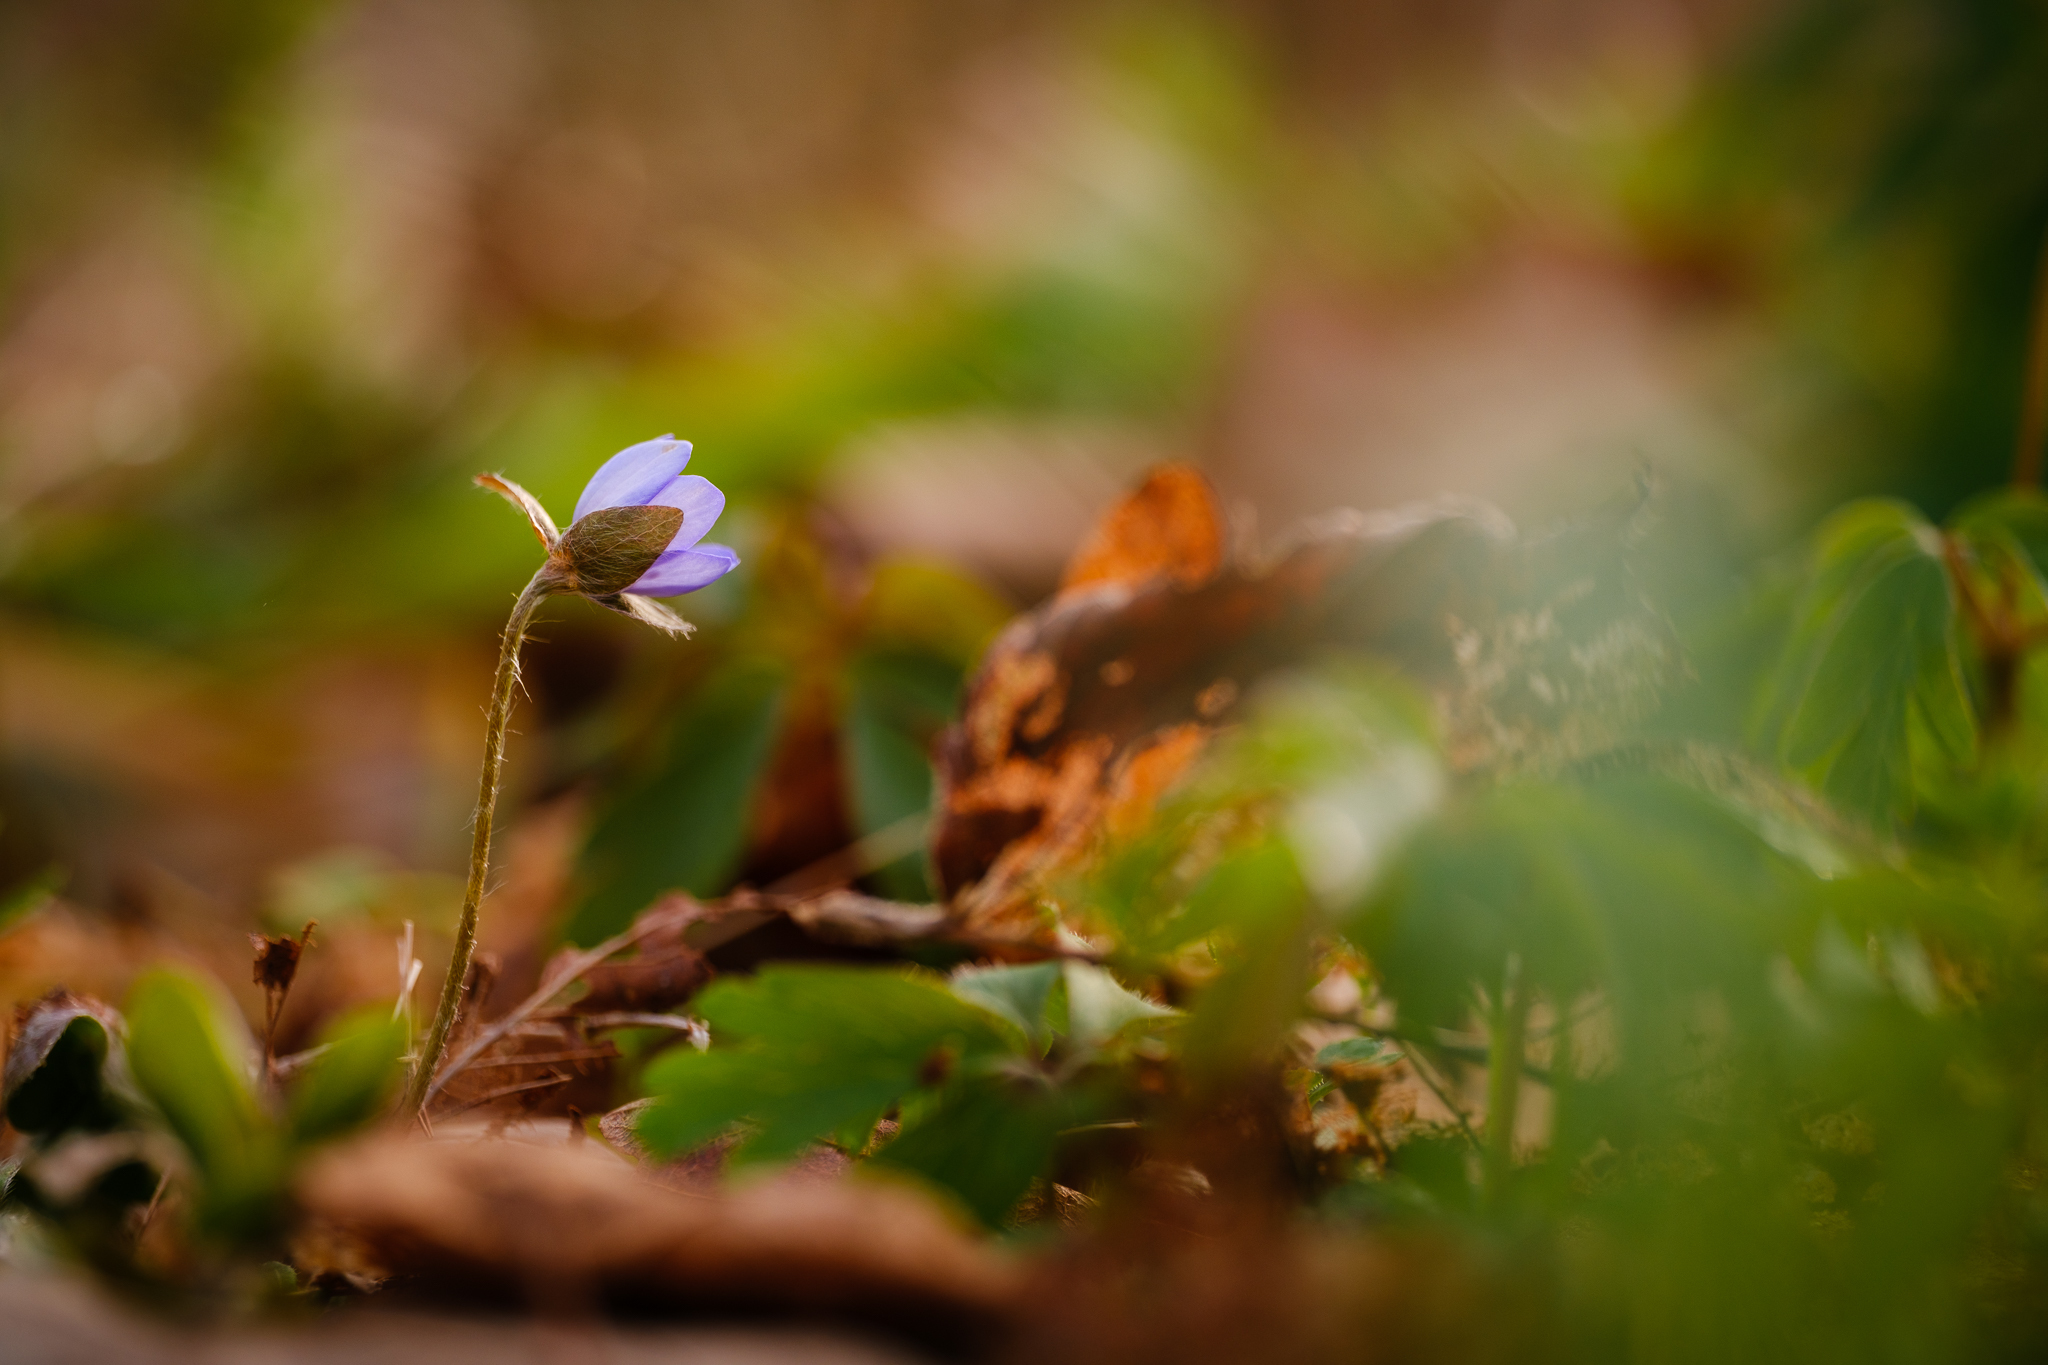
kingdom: Plantae
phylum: Tracheophyta
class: Magnoliopsida
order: Ranunculales
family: Ranunculaceae
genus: Hepatica
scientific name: Hepatica nobilis
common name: Liverleaf
